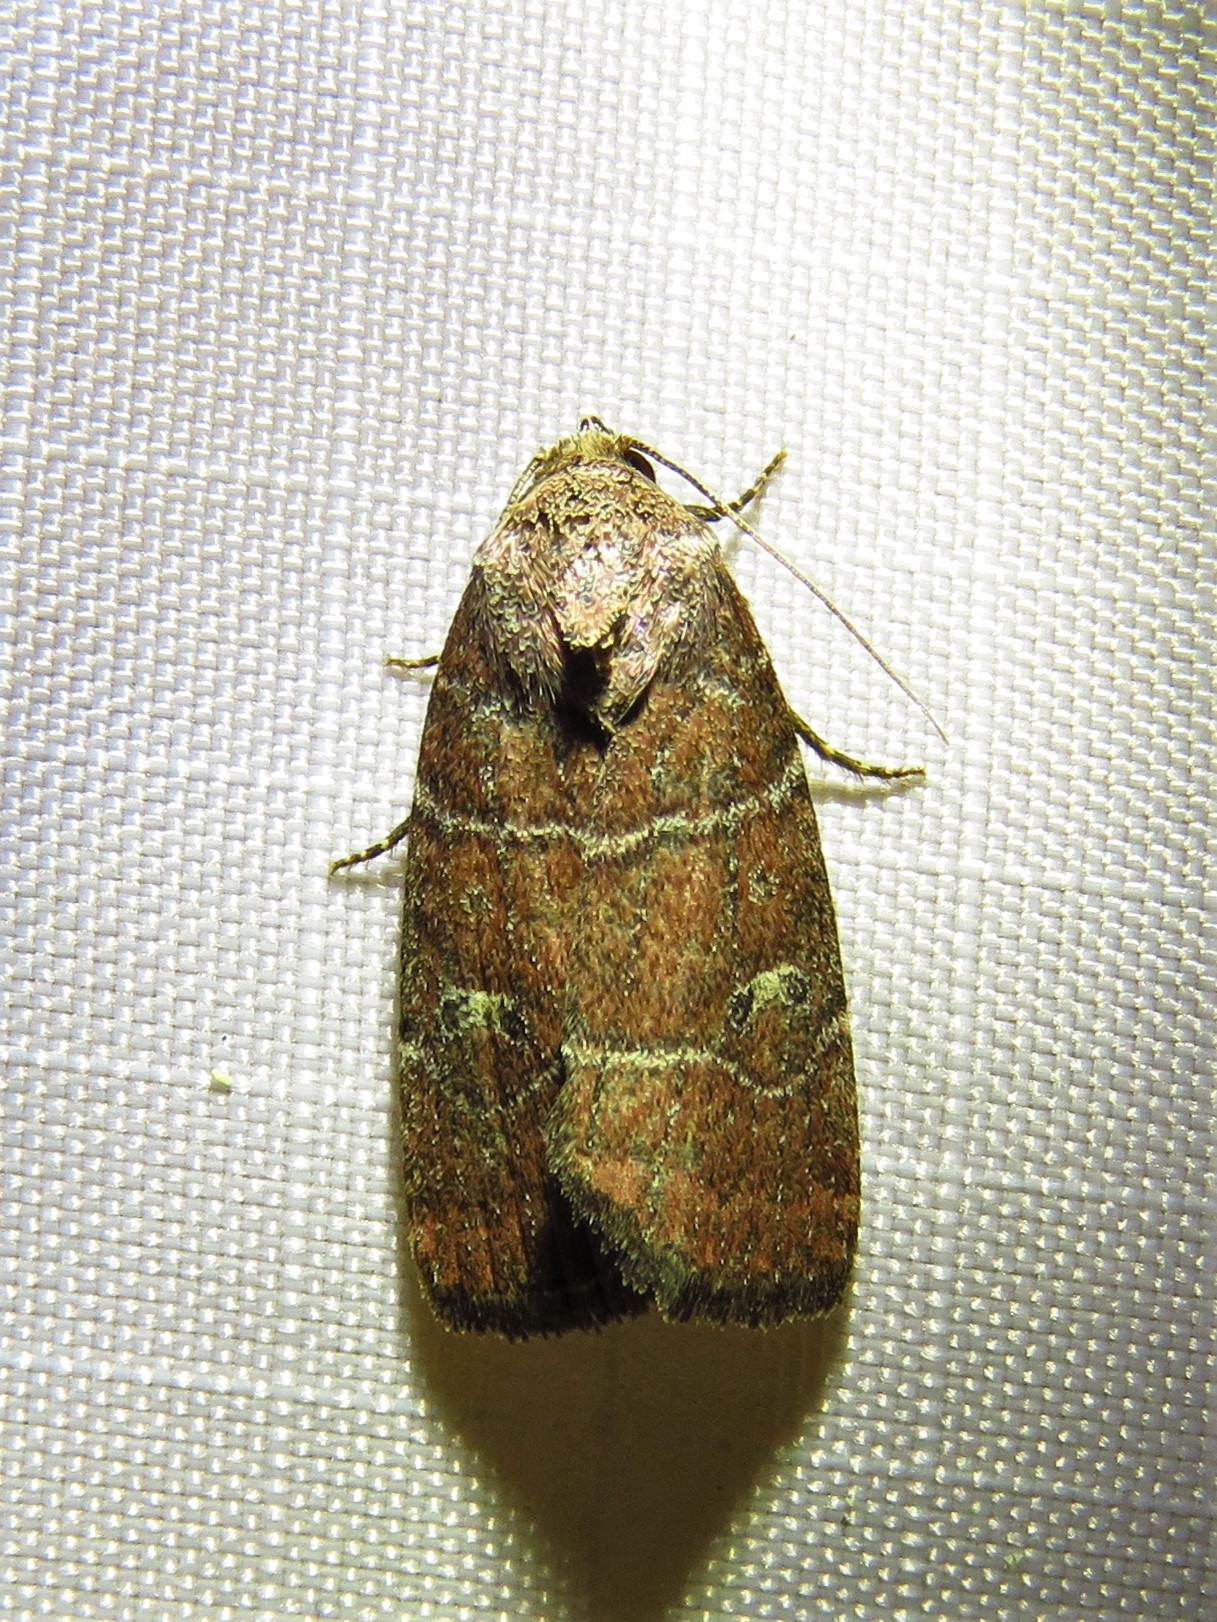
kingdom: Animalia
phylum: Arthropoda
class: Insecta
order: Lepidoptera
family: Noctuidae
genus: Elaphria
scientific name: Elaphria grata
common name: Grateful midget moth
